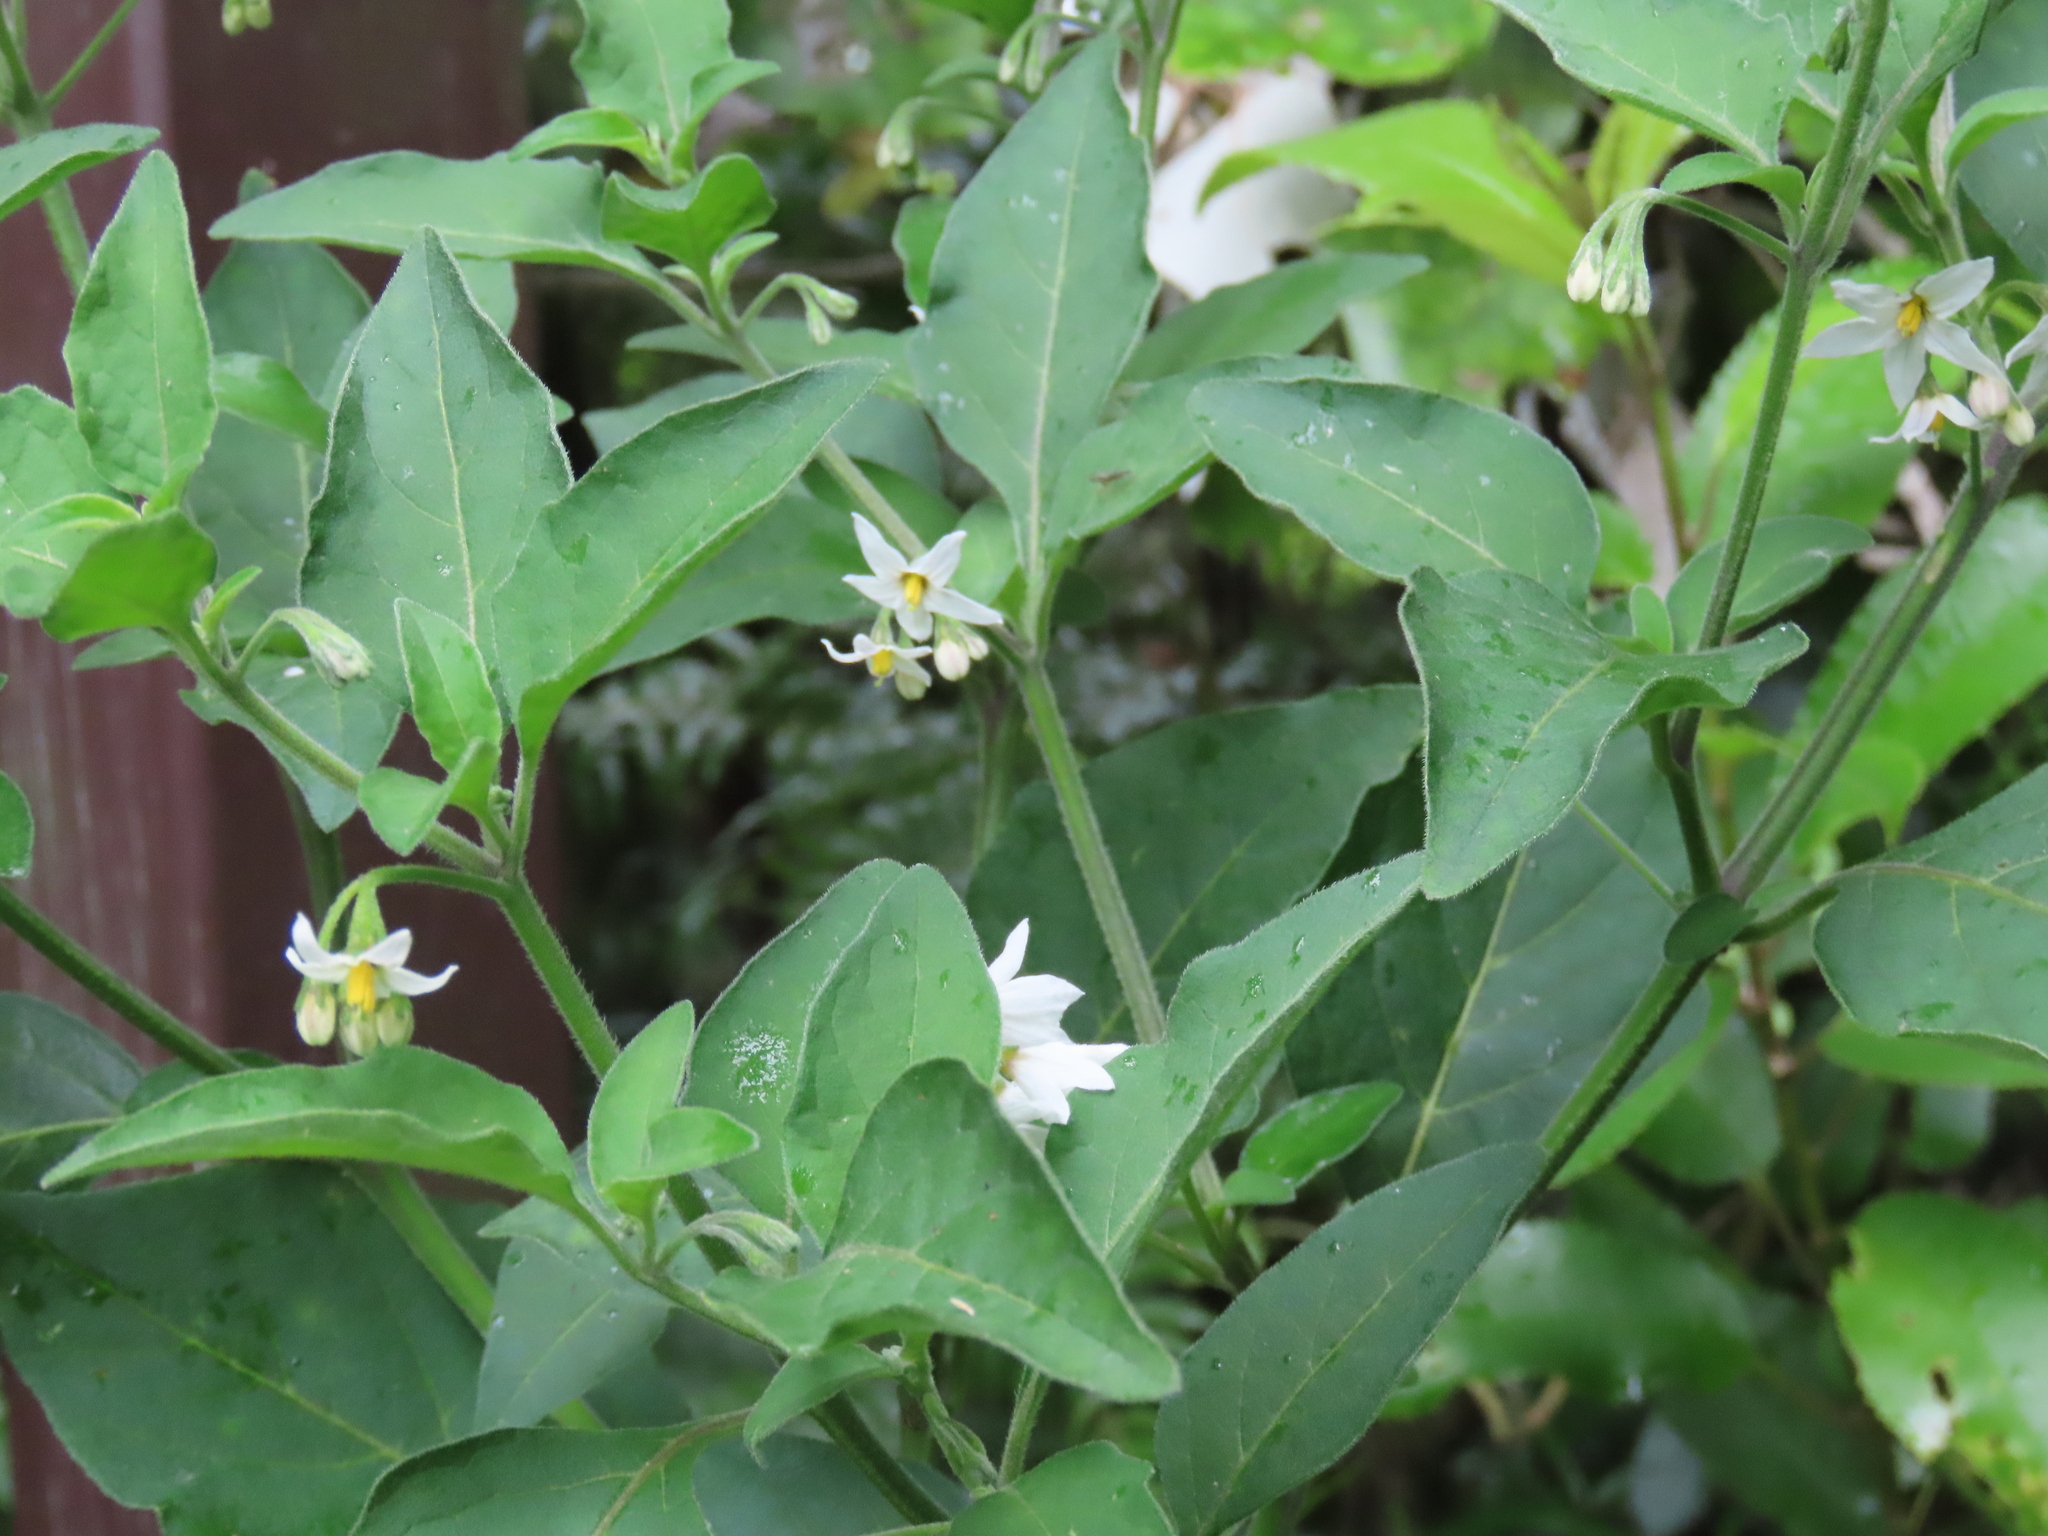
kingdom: Plantae
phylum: Tracheophyta
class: Magnoliopsida
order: Solanales
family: Solanaceae
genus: Solanum
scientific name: Solanum chenopodioides
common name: Tall nightshade
